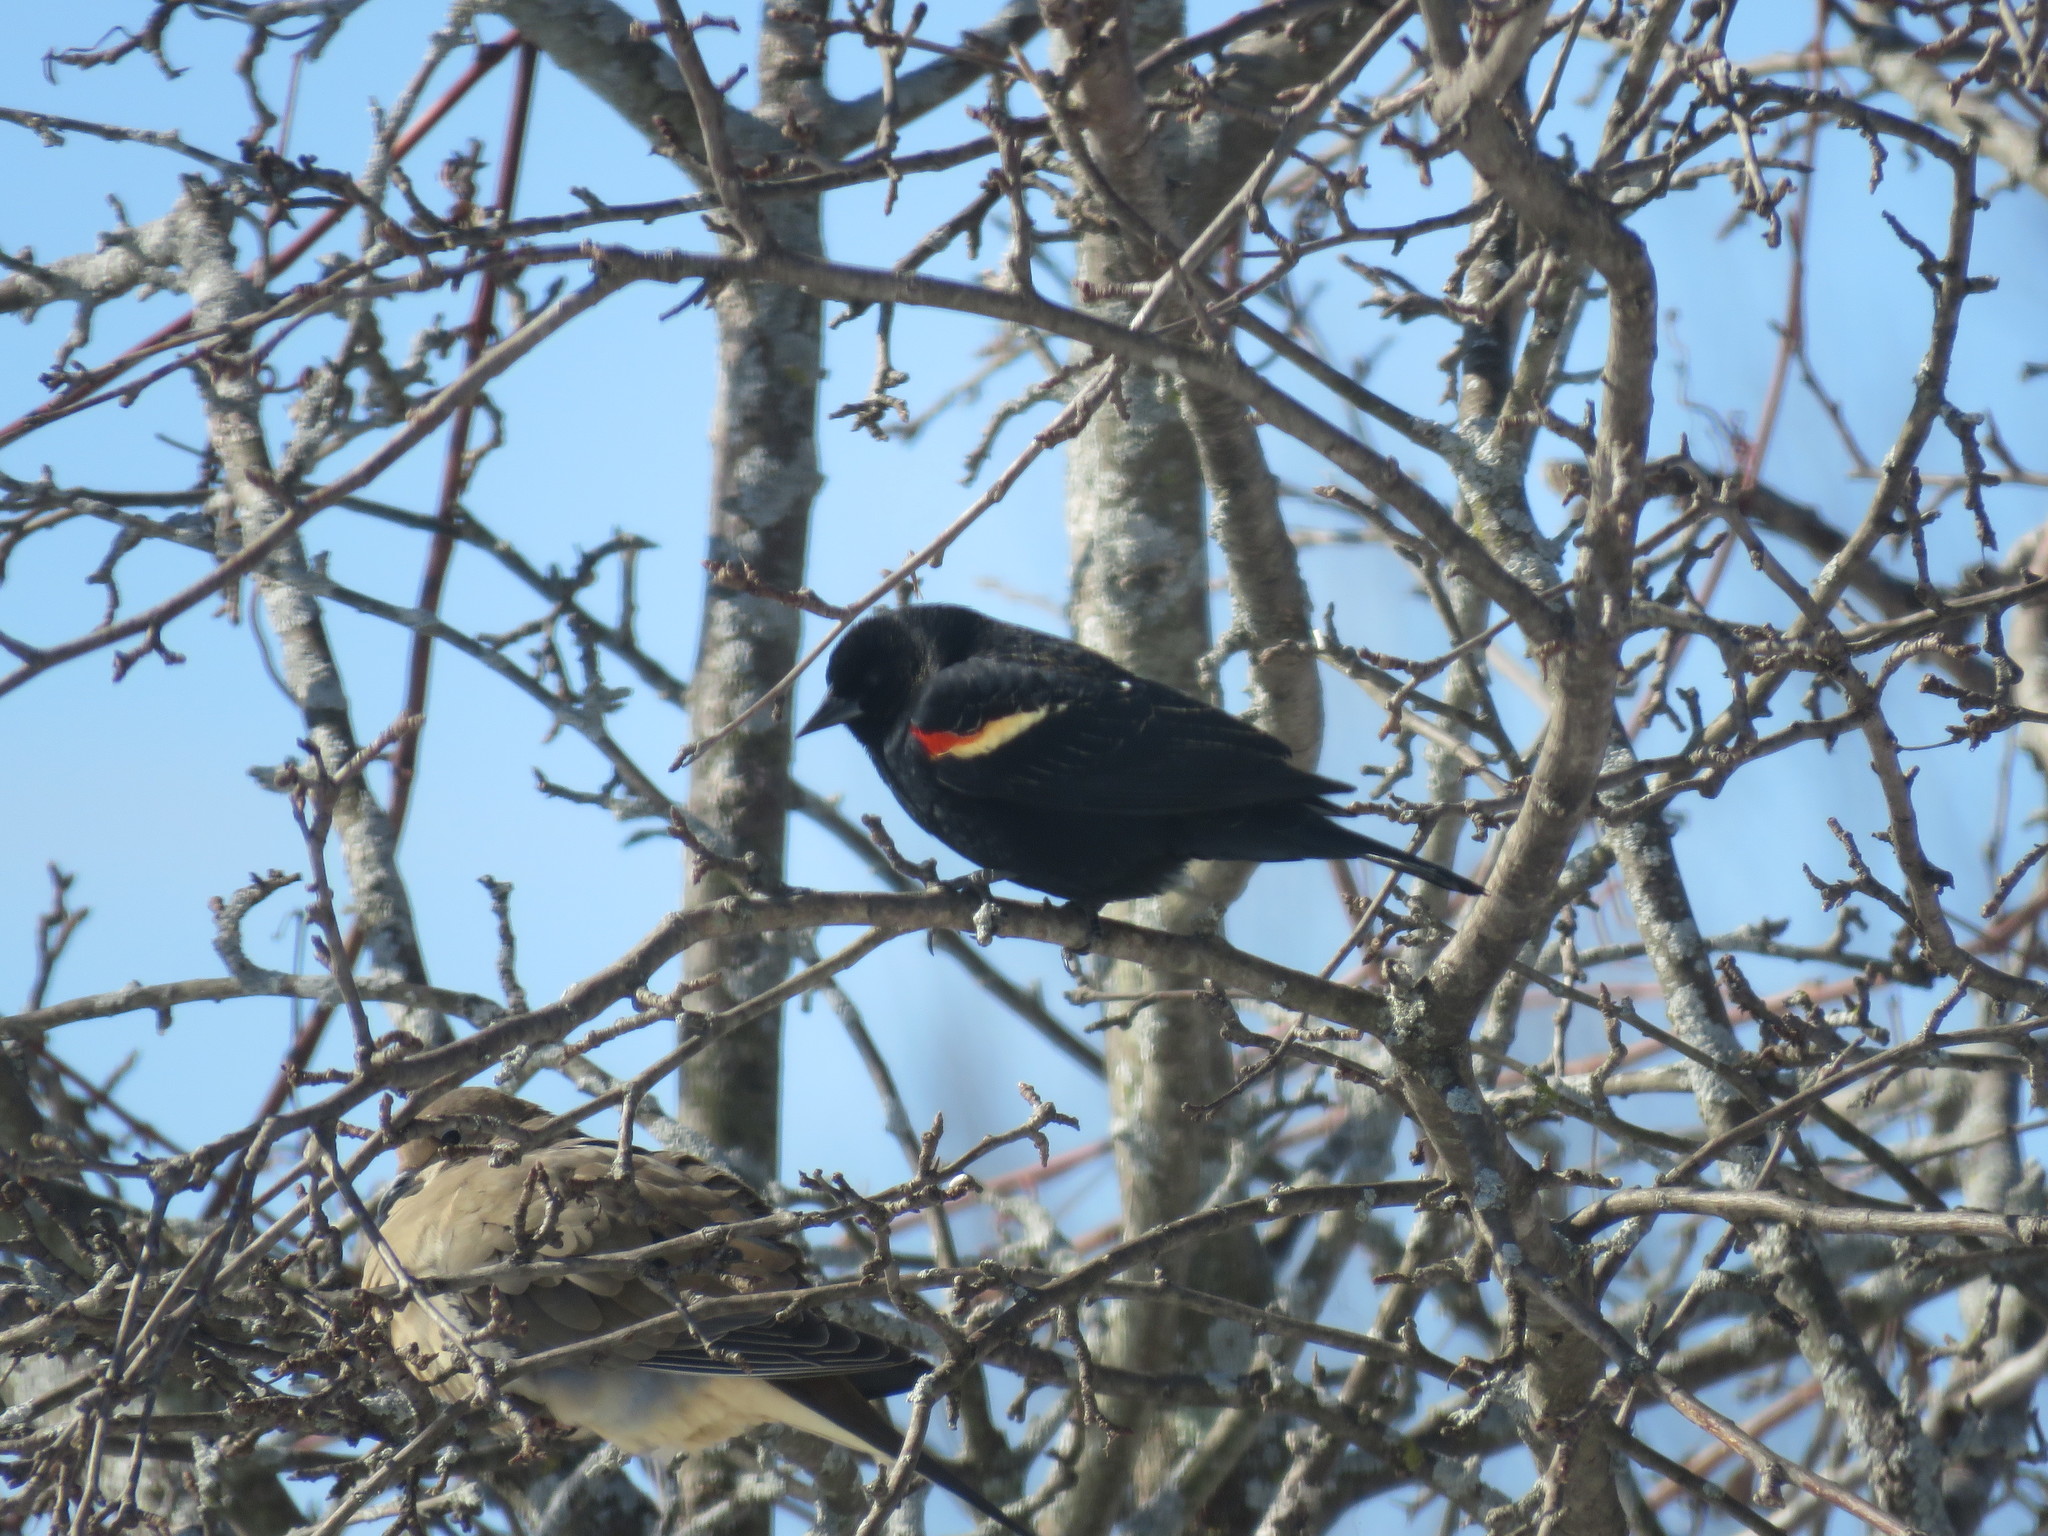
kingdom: Animalia
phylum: Chordata
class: Aves
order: Passeriformes
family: Icteridae
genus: Agelaius
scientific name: Agelaius phoeniceus
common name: Red-winged blackbird
